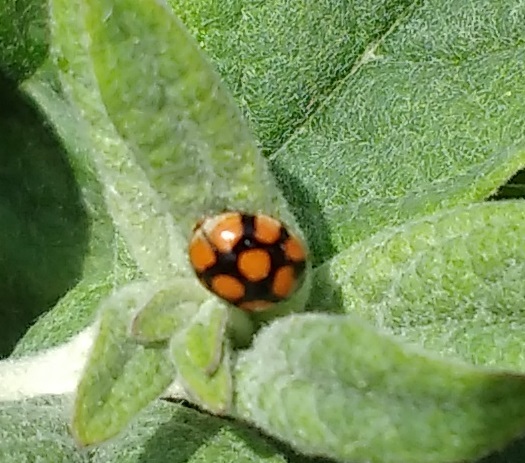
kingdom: Animalia
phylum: Arthropoda
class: Insecta
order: Coleoptera
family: Coccinellidae
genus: Adalia
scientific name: Adalia decempunctata
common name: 10-spot ladybird
